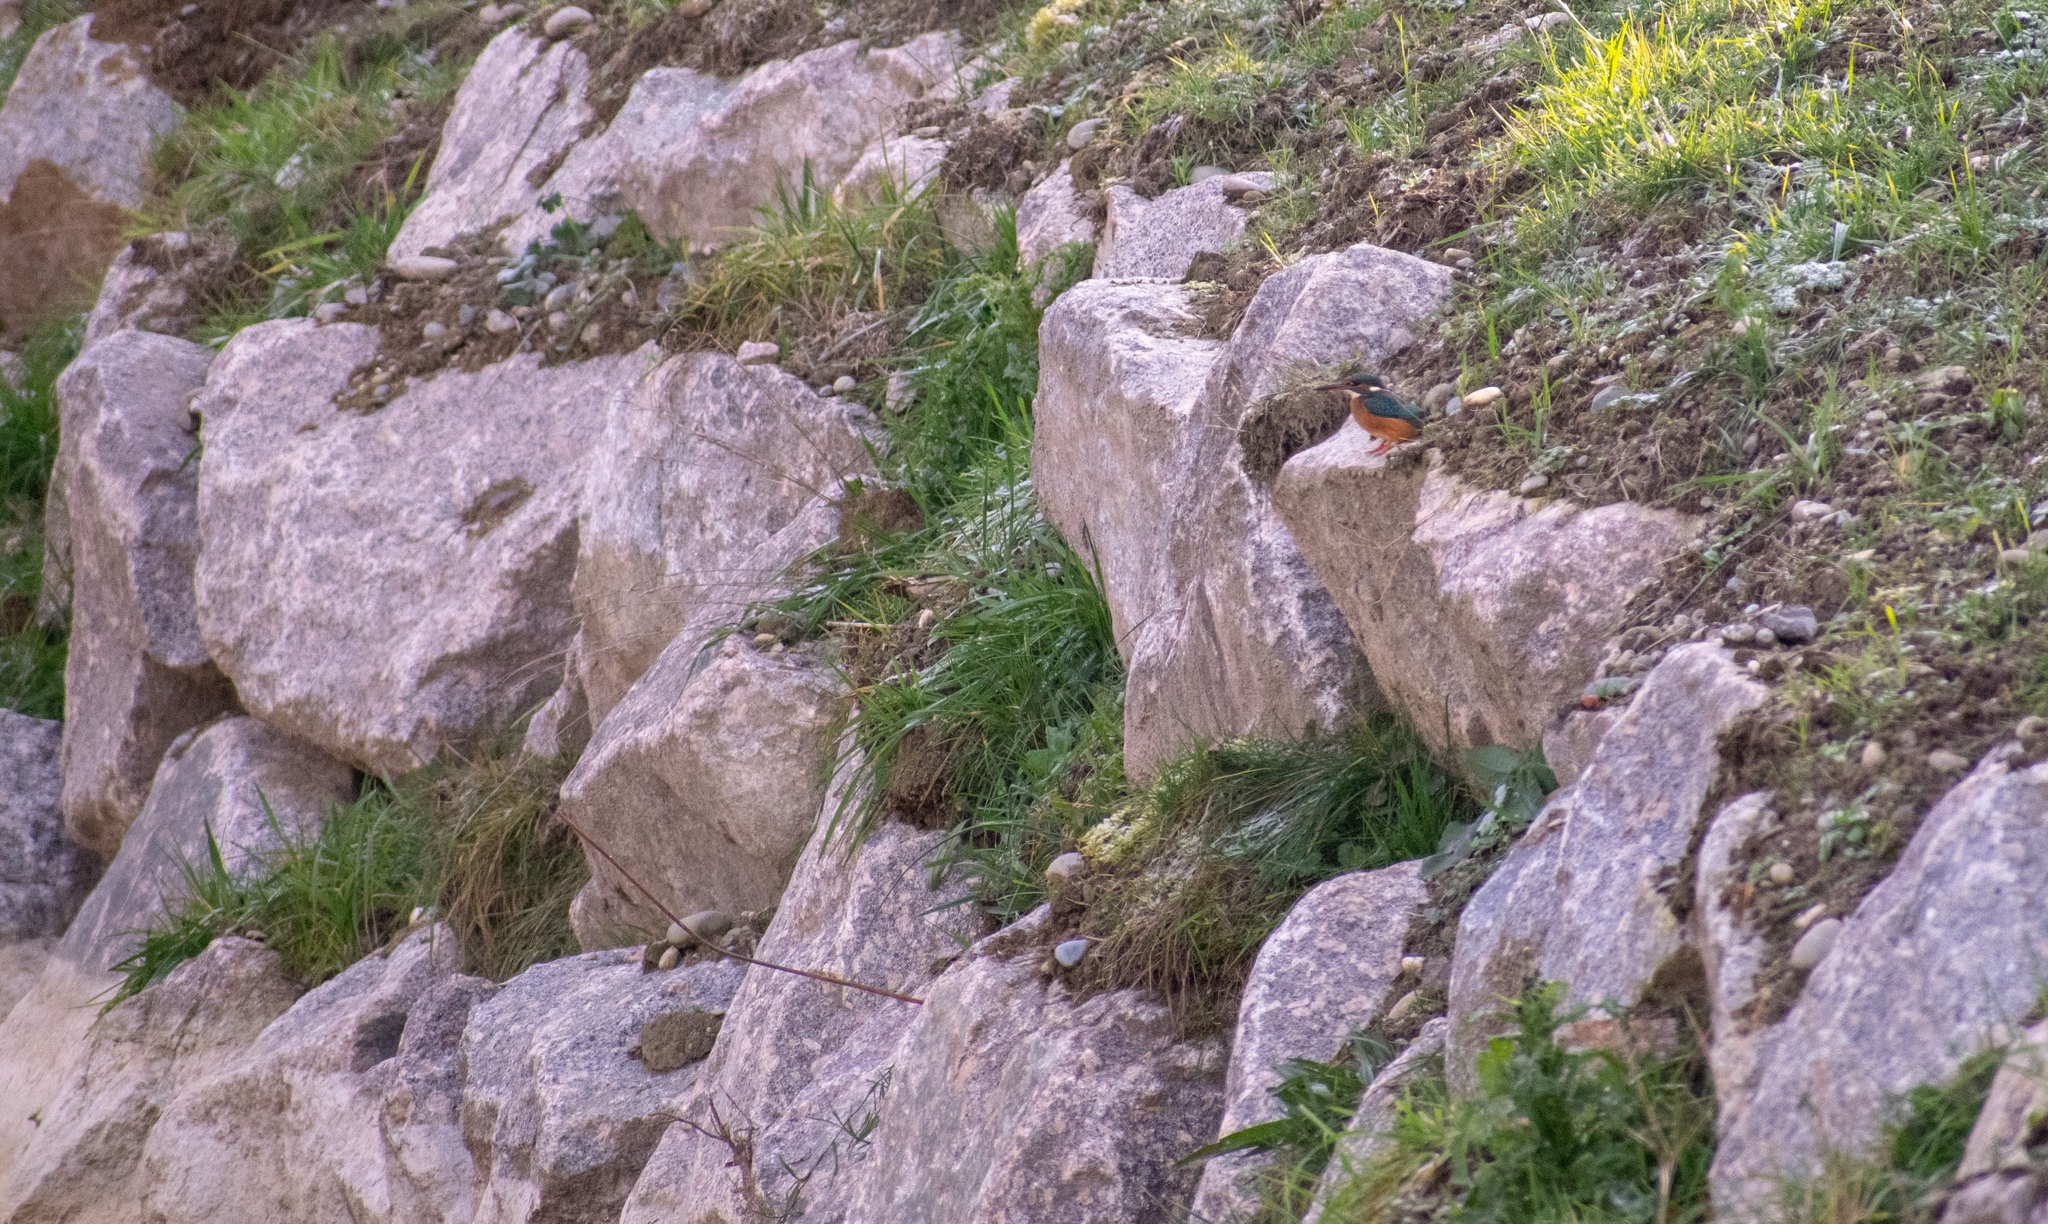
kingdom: Animalia
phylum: Chordata
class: Aves
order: Coraciiformes
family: Alcedinidae
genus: Alcedo
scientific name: Alcedo atthis
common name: Common kingfisher
